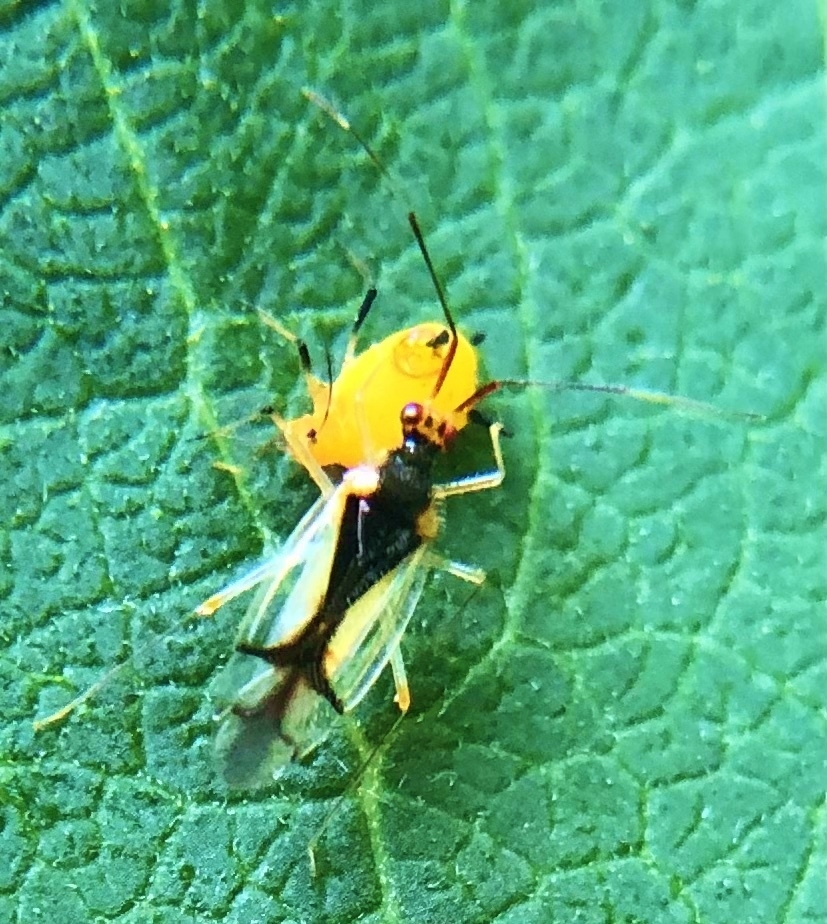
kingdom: Animalia
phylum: Arthropoda
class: Insecta
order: Hemiptera
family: Miridae
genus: Hyaliodes
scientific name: Hyaliodes vitripennis
